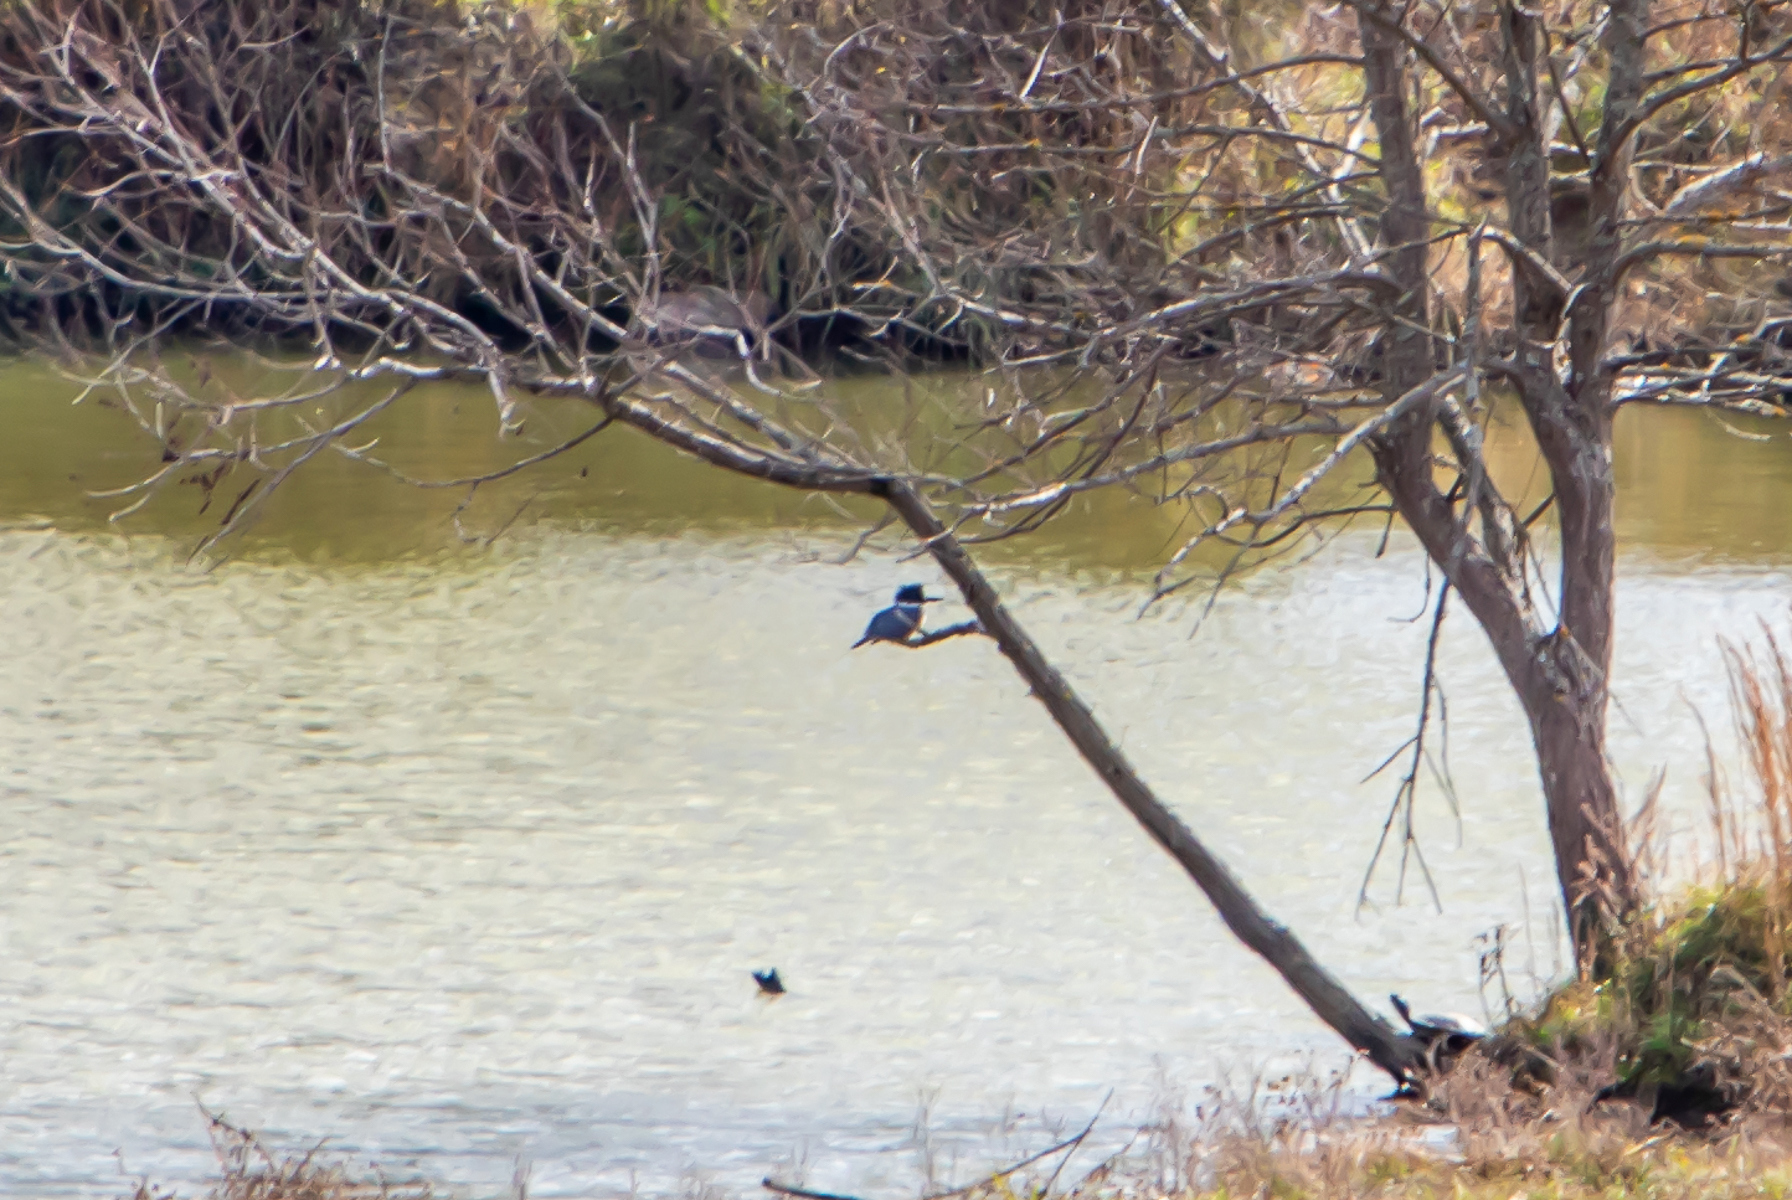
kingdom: Animalia
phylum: Chordata
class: Aves
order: Coraciiformes
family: Alcedinidae
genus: Megaceryle
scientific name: Megaceryle alcyon
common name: Belted kingfisher
